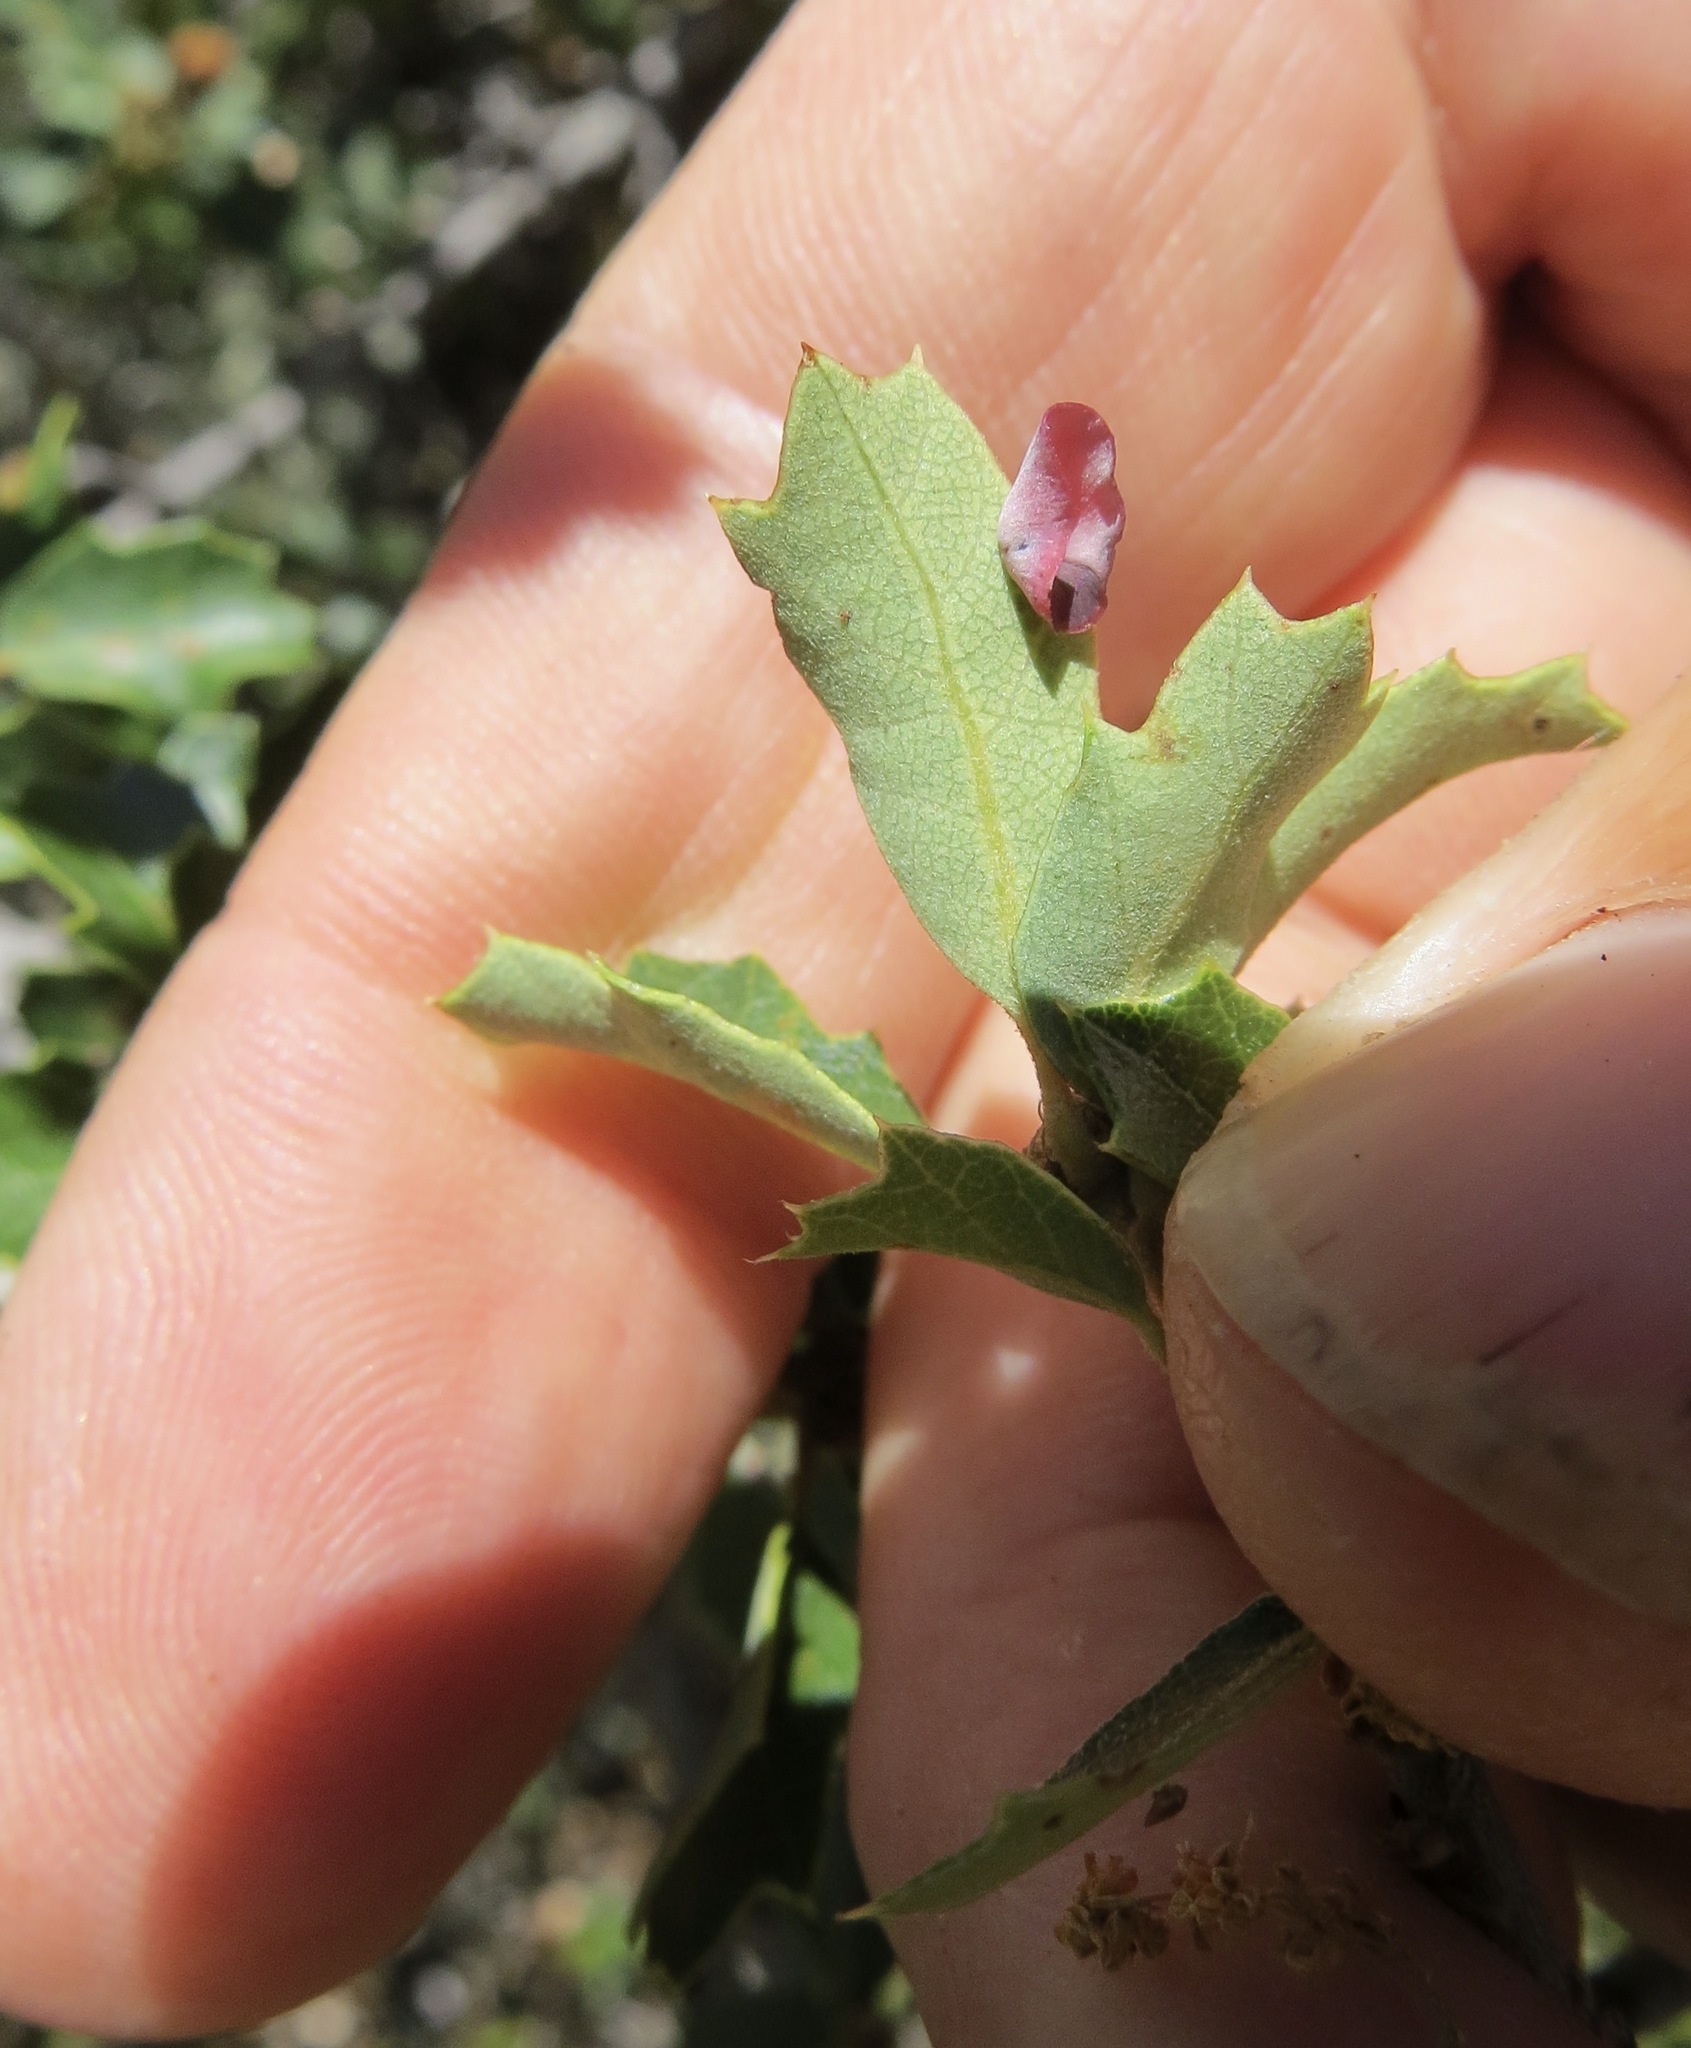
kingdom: Animalia
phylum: Arthropoda
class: Insecta
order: Hymenoptera
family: Cynipidae
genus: Andricus
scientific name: Andricus
